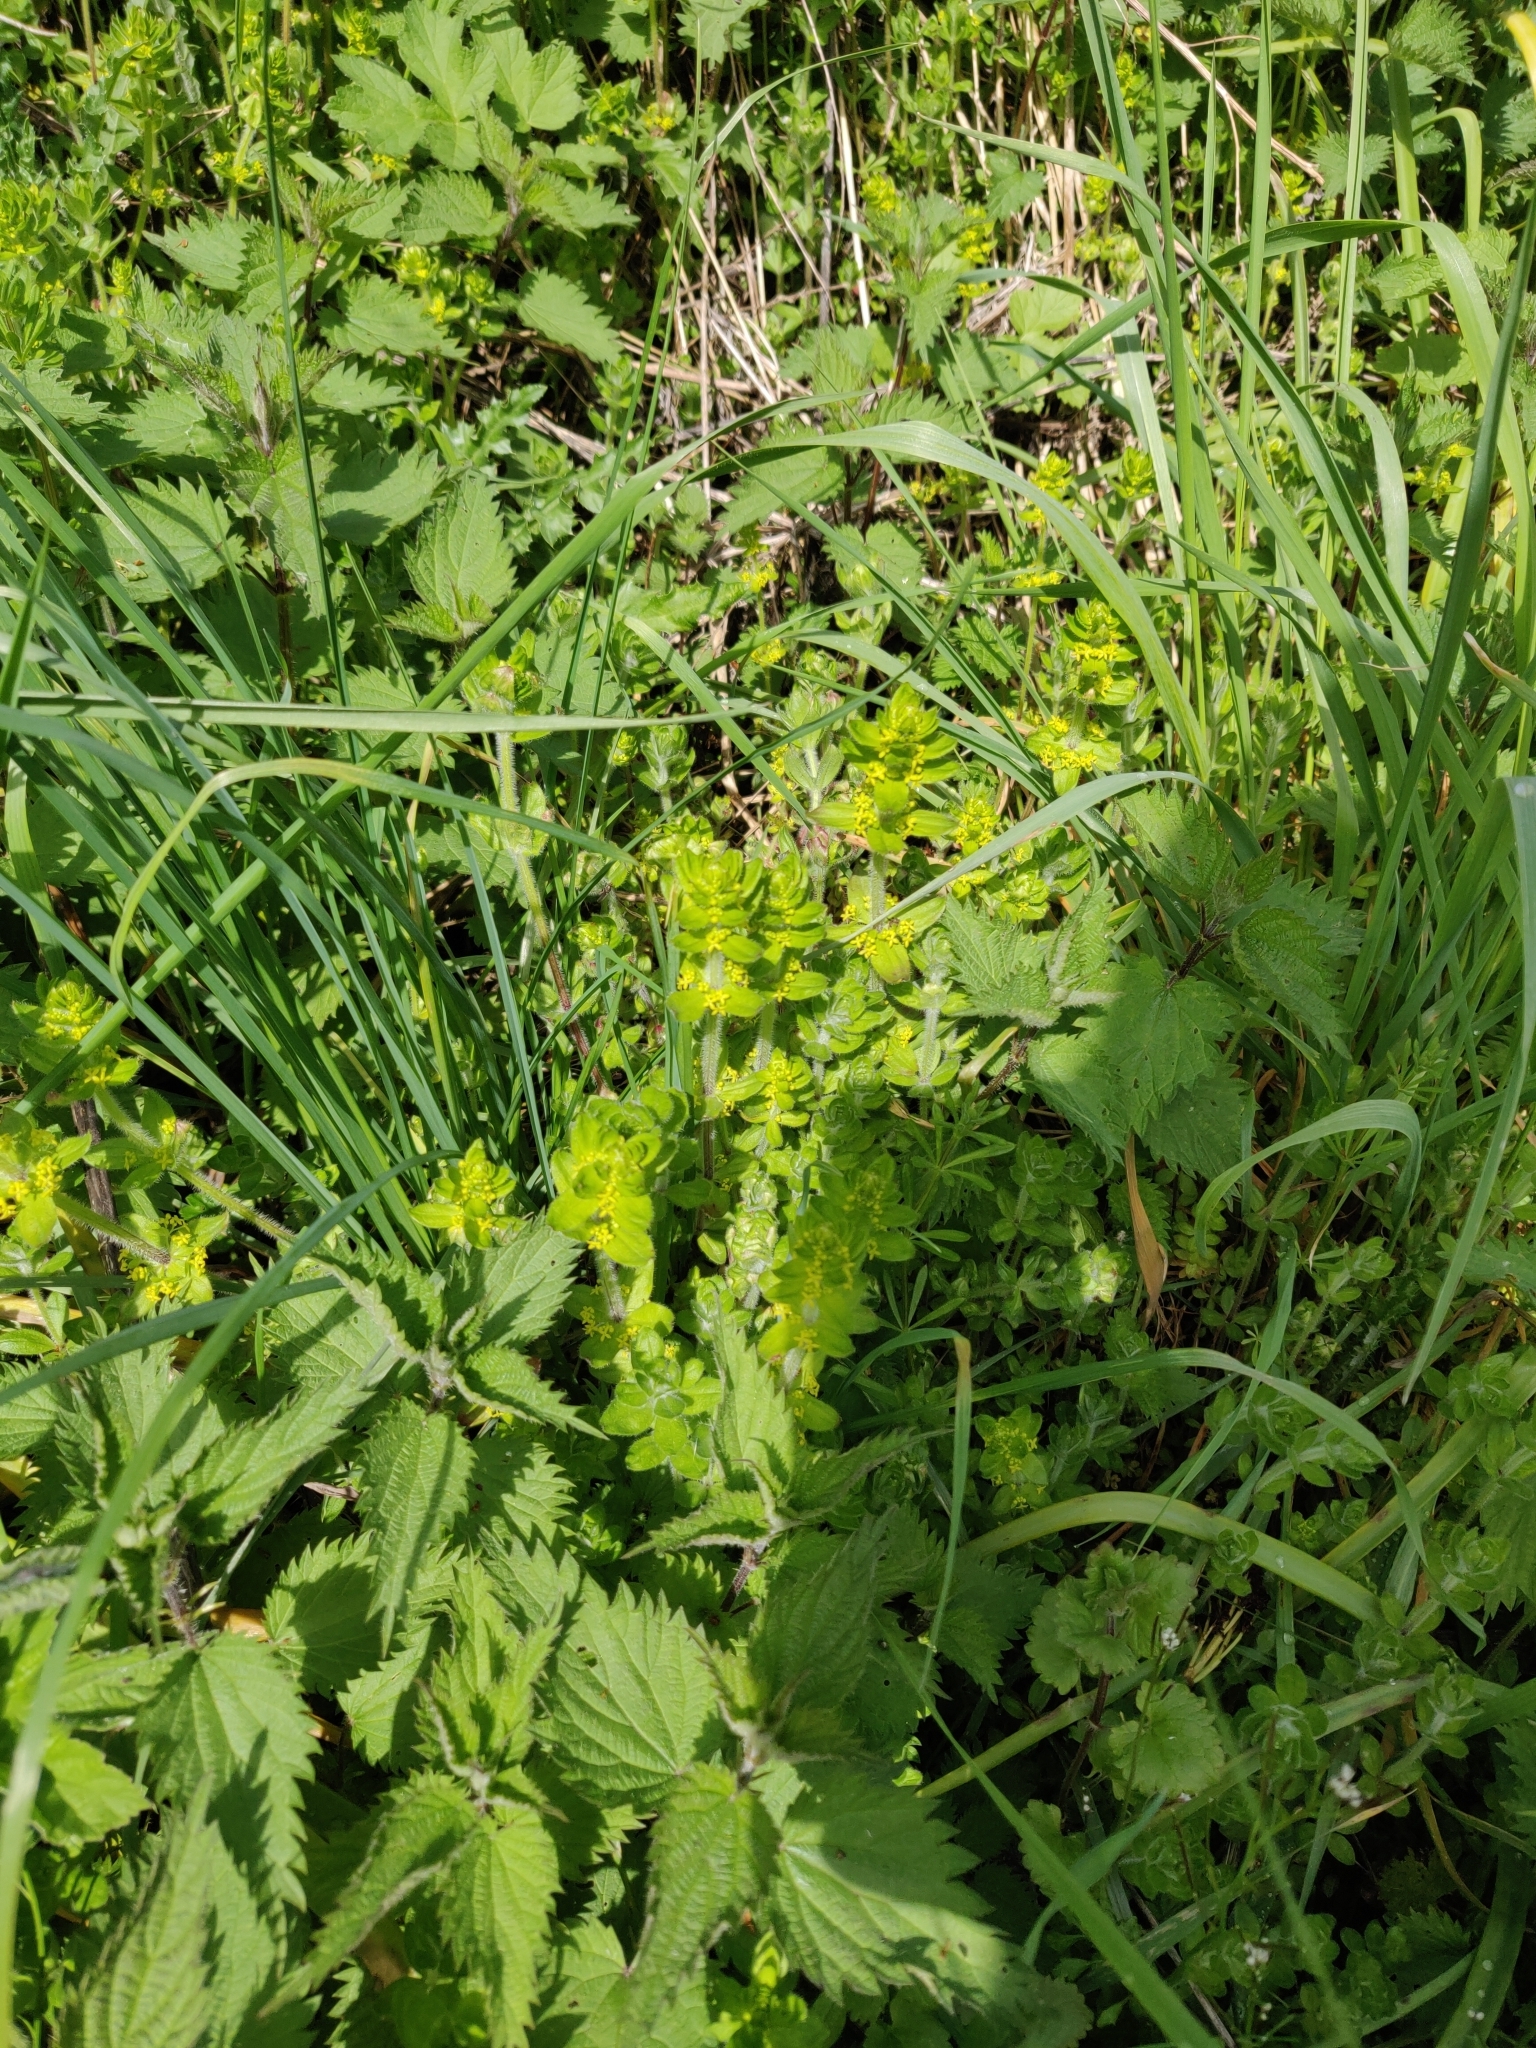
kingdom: Plantae
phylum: Tracheophyta
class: Magnoliopsida
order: Gentianales
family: Rubiaceae
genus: Cruciata
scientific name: Cruciata laevipes
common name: Crosswort
